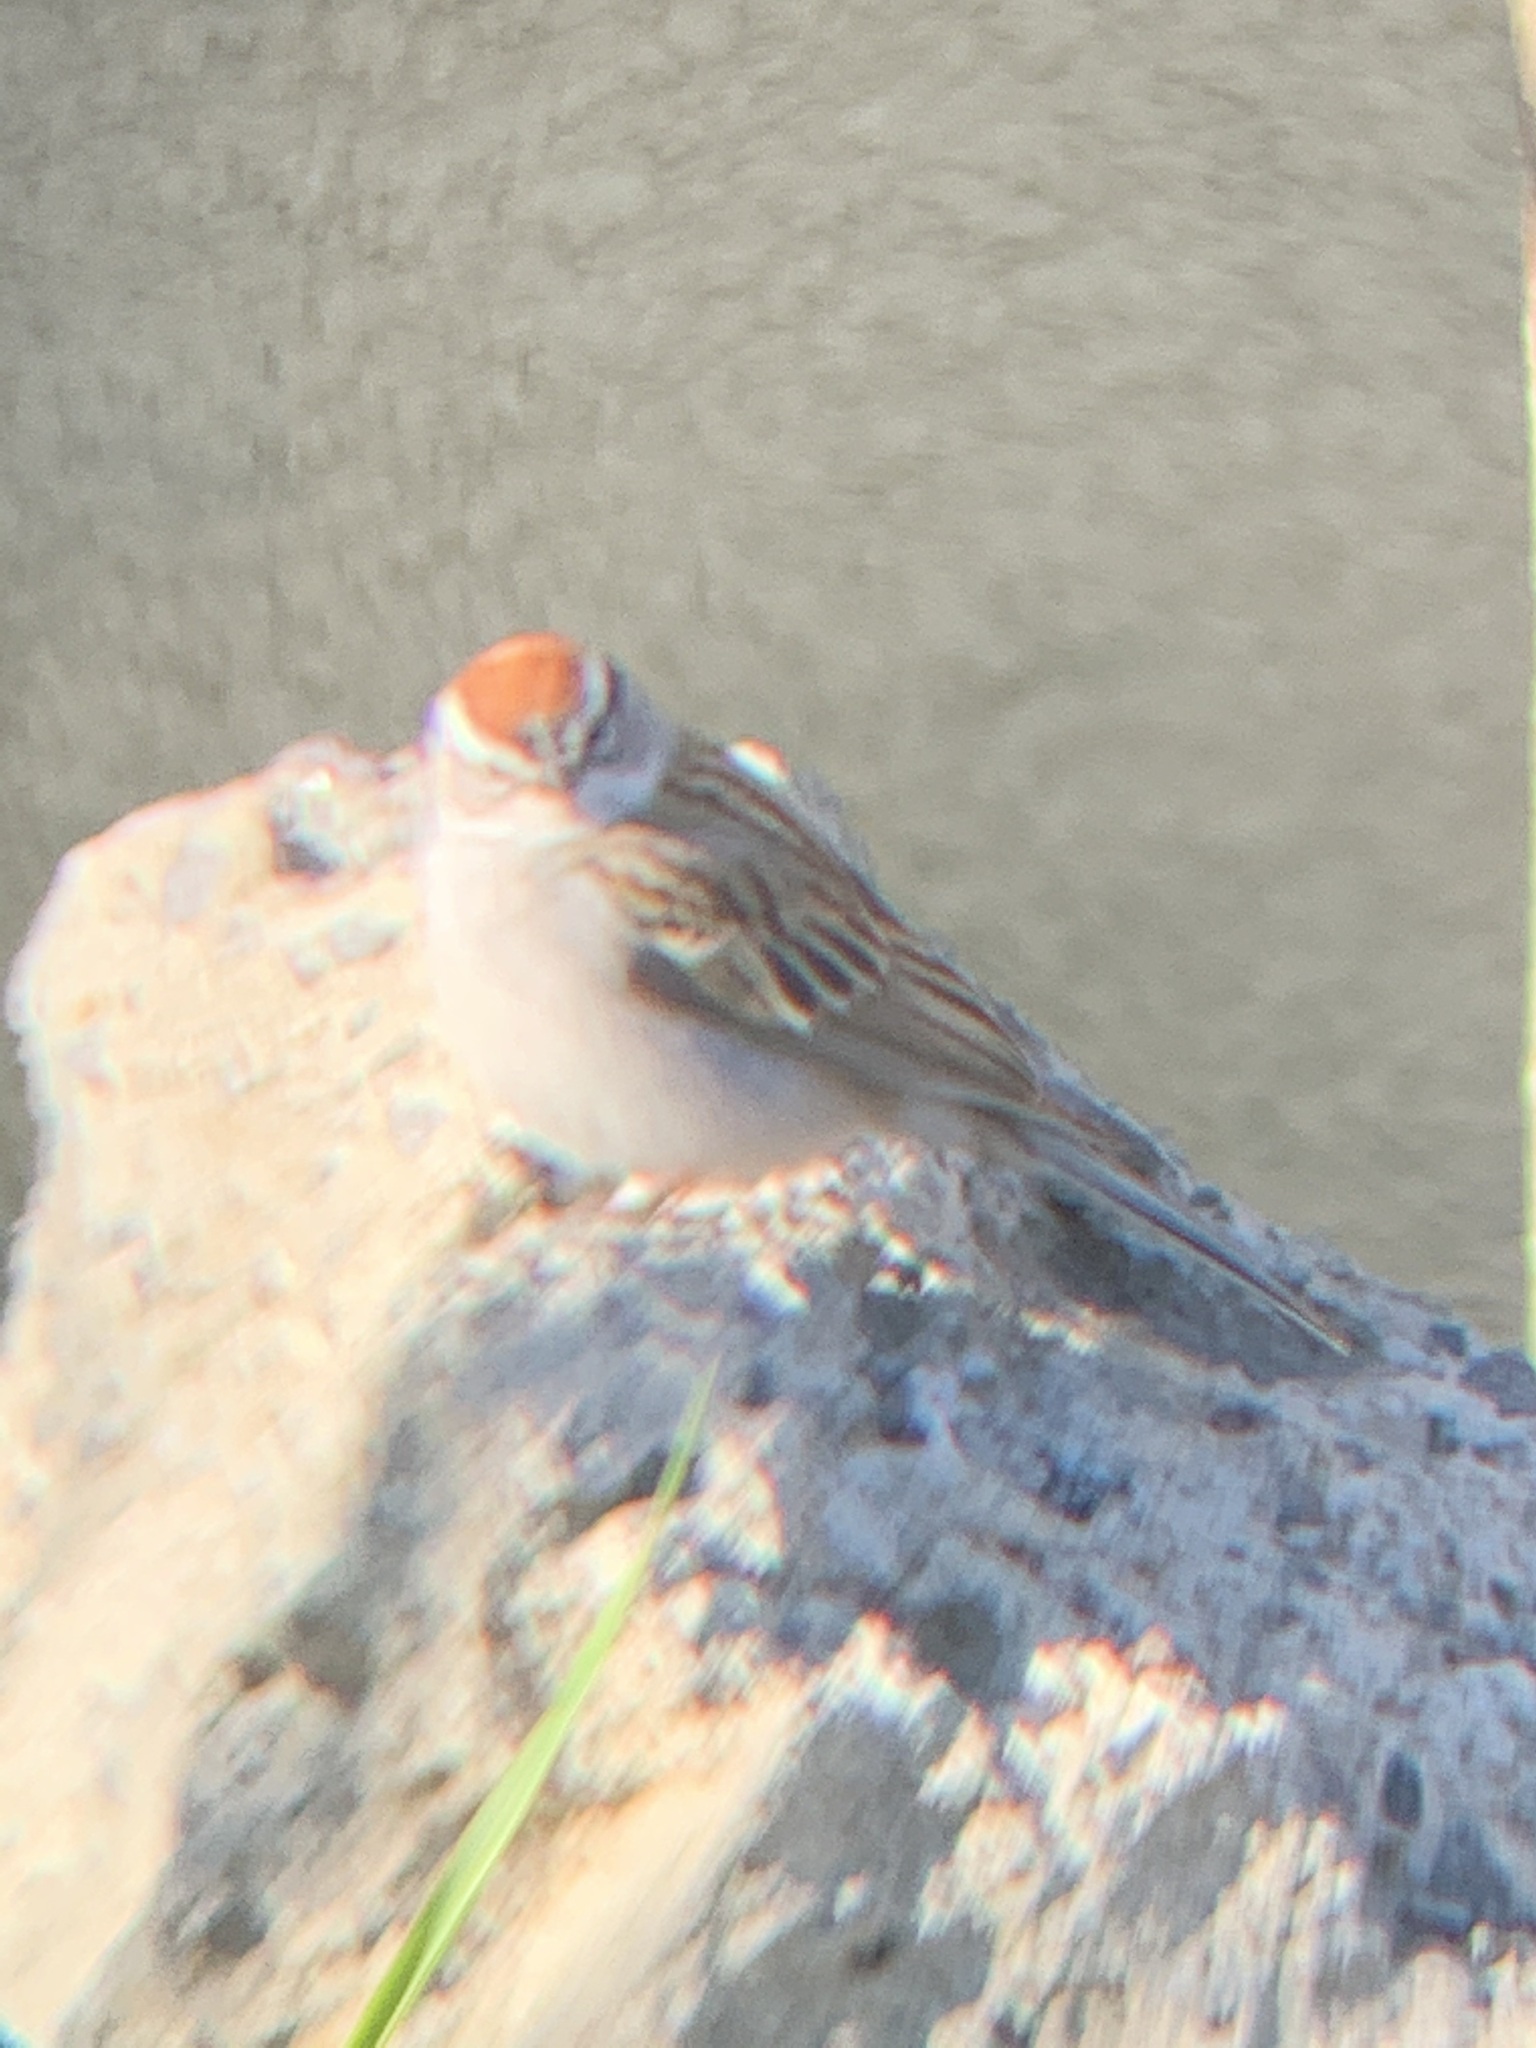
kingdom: Animalia
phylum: Chordata
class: Aves
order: Passeriformes
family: Passerellidae
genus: Spizella
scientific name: Spizella passerina
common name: Chipping sparrow
